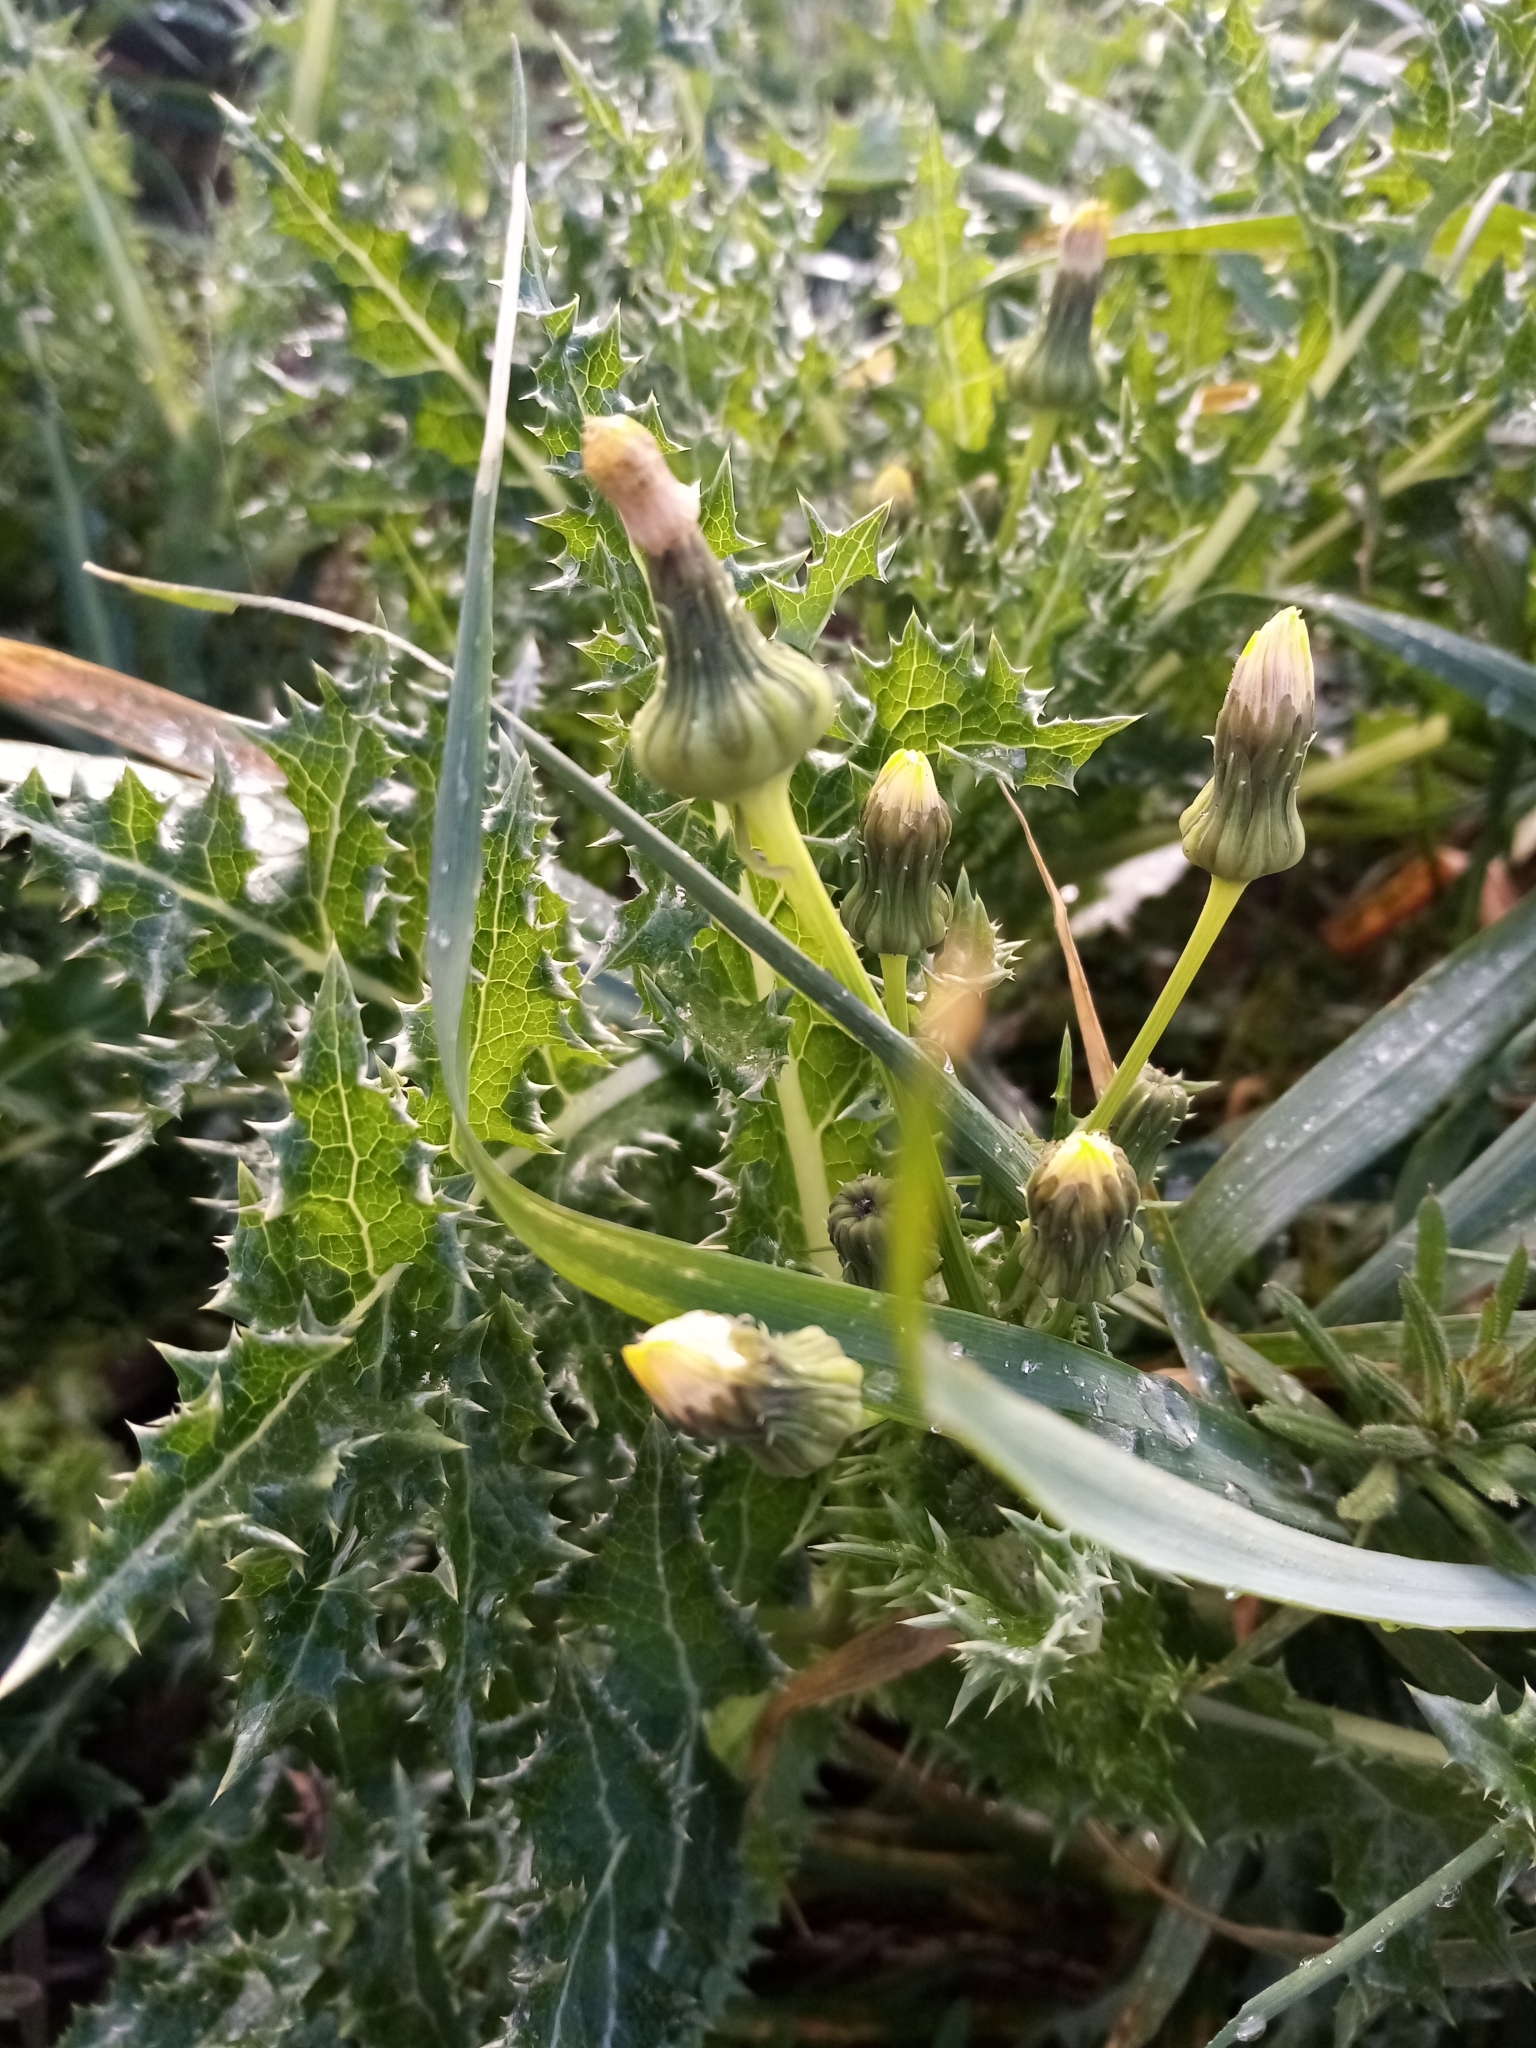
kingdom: Plantae
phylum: Tracheophyta
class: Magnoliopsida
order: Asterales
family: Asteraceae
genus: Sonchus
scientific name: Sonchus asper
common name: Prickly sow-thistle
